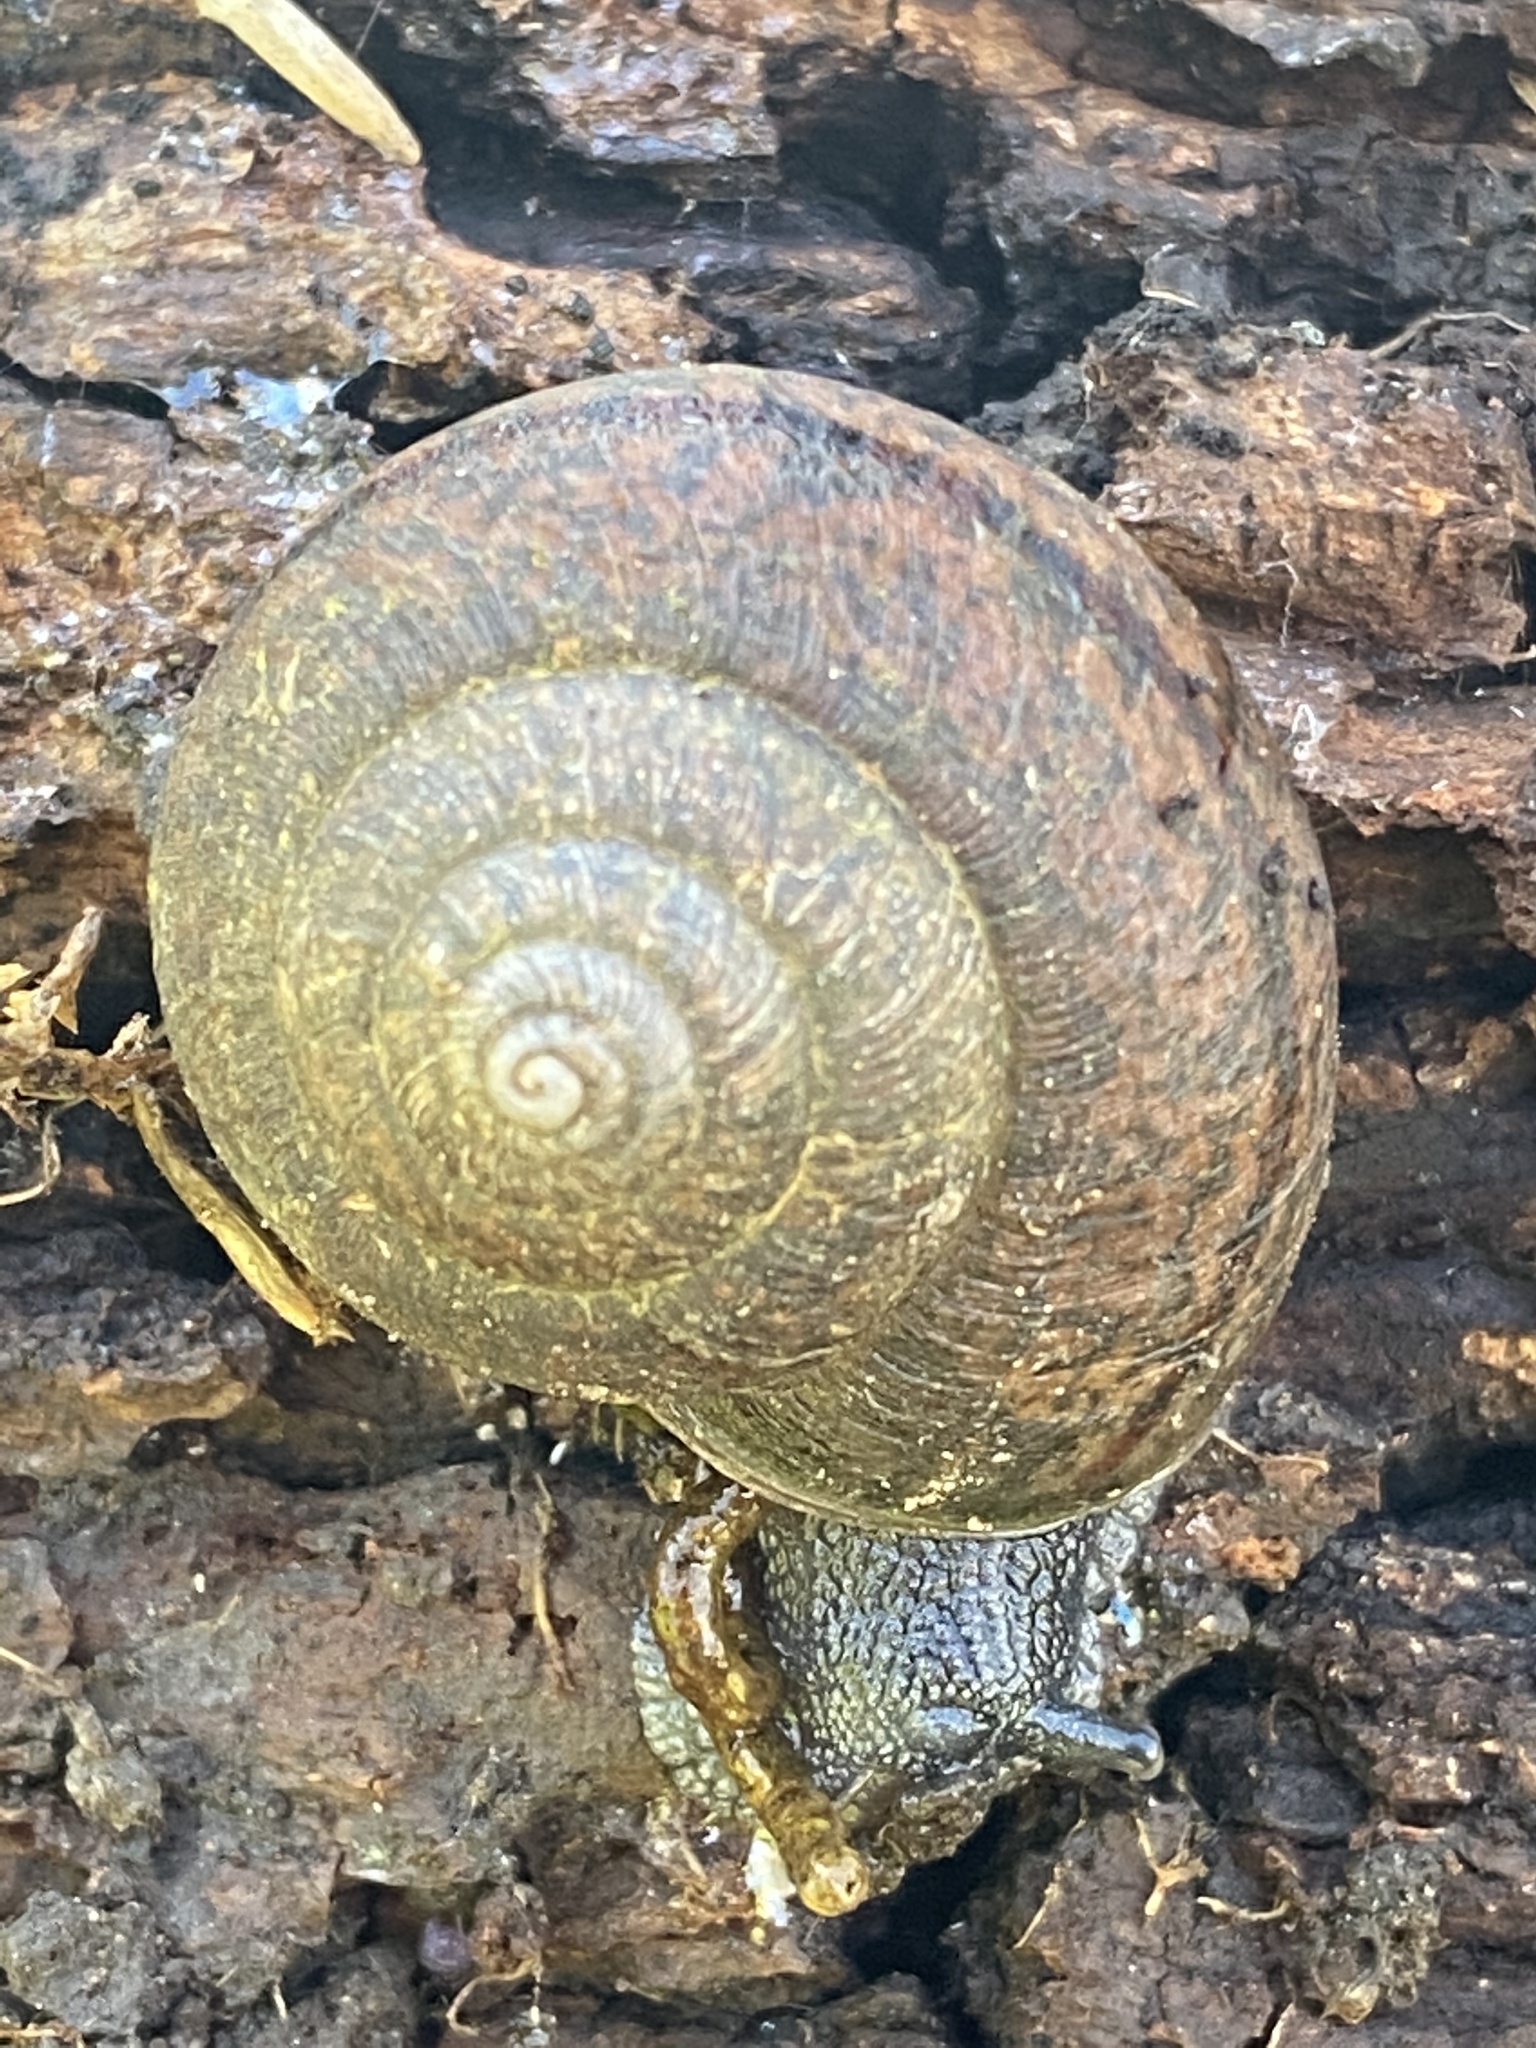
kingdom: Animalia
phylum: Mollusca
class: Gastropoda
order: Stylommatophora
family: Xanthonychidae
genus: Helminthoglypta
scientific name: Helminthoglypta nickliniana
